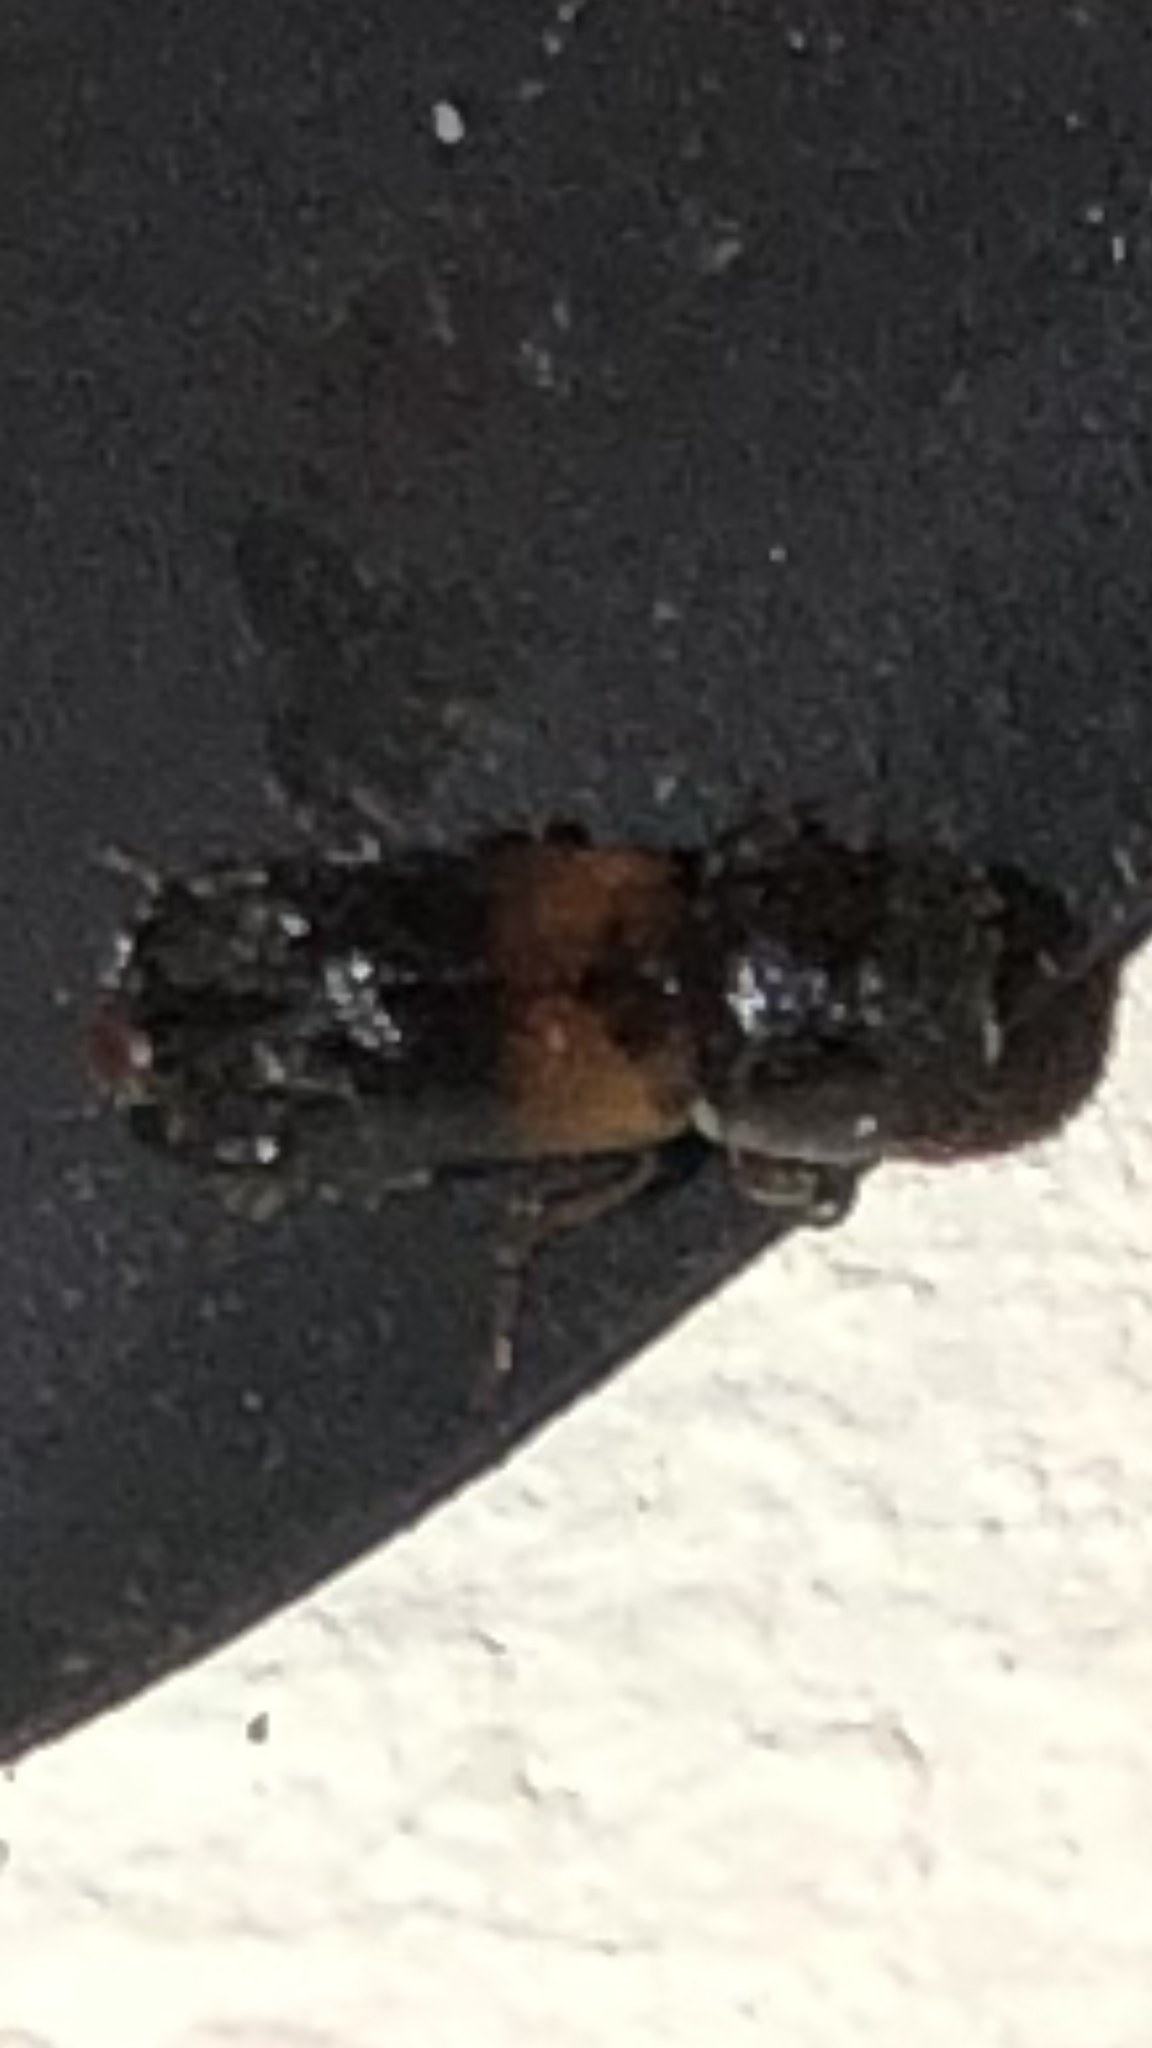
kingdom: Animalia
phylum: Arthropoda
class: Insecta
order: Coleoptera
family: Bostrichidae
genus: Xylobiops
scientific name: Xylobiops basilaris
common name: Red-shouldered bostrichid
